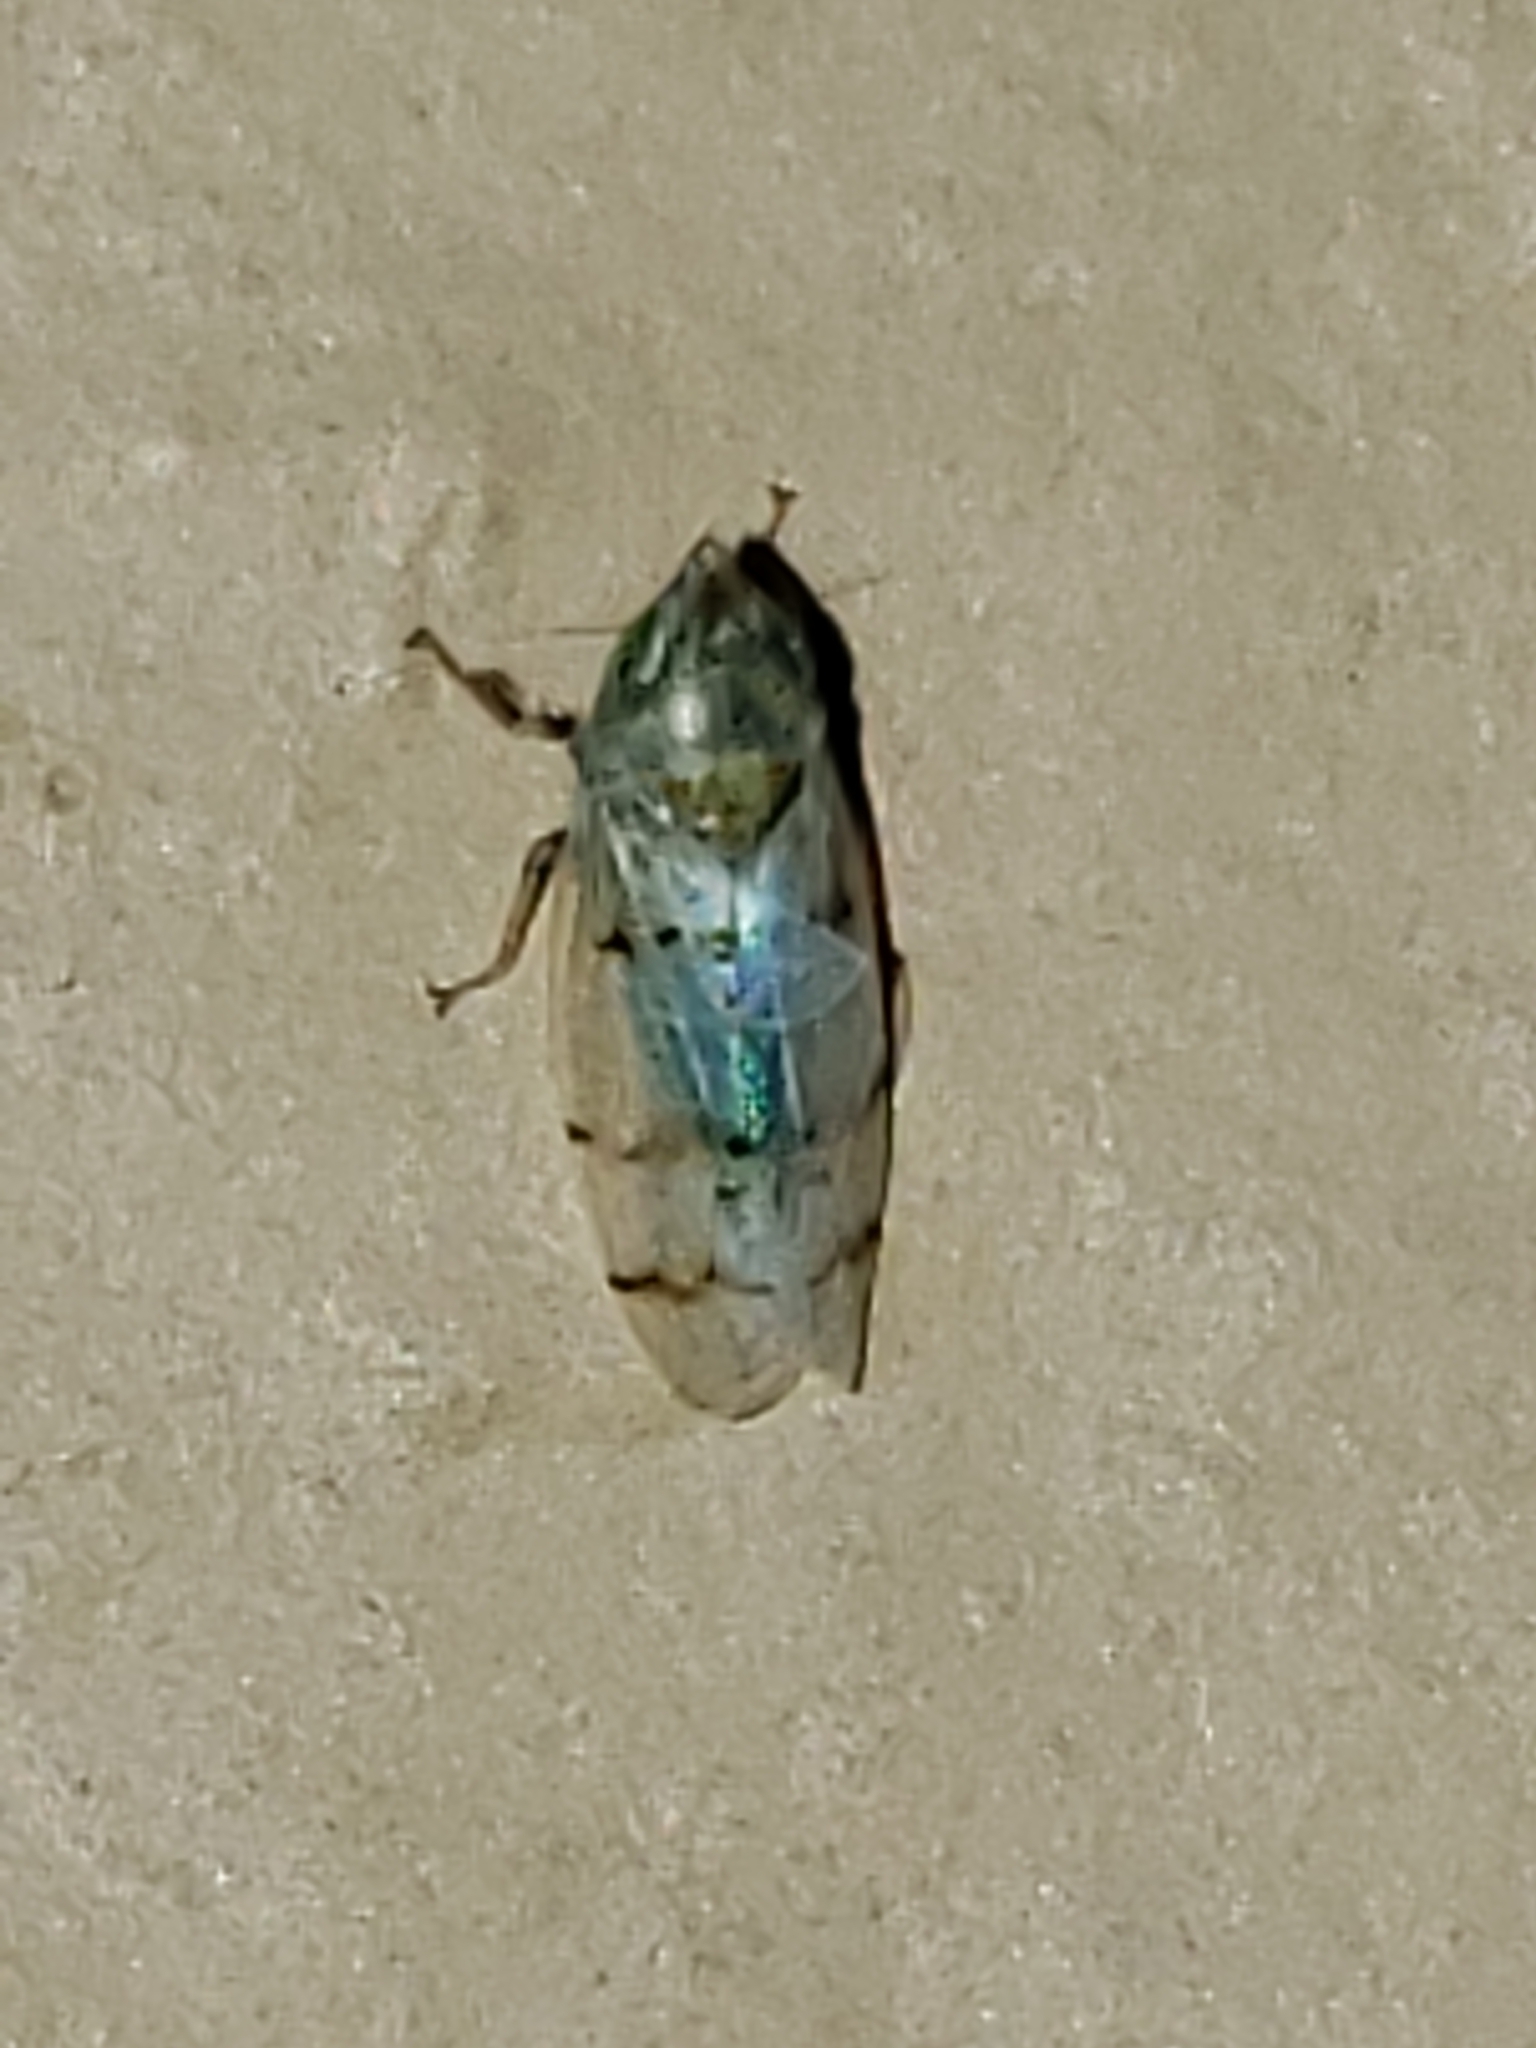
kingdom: Animalia
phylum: Arthropoda
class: Insecta
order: Hemiptera
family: Cicadellidae
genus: Japananus
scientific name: Japananus hyalinus
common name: The japanese maple leafhopper
